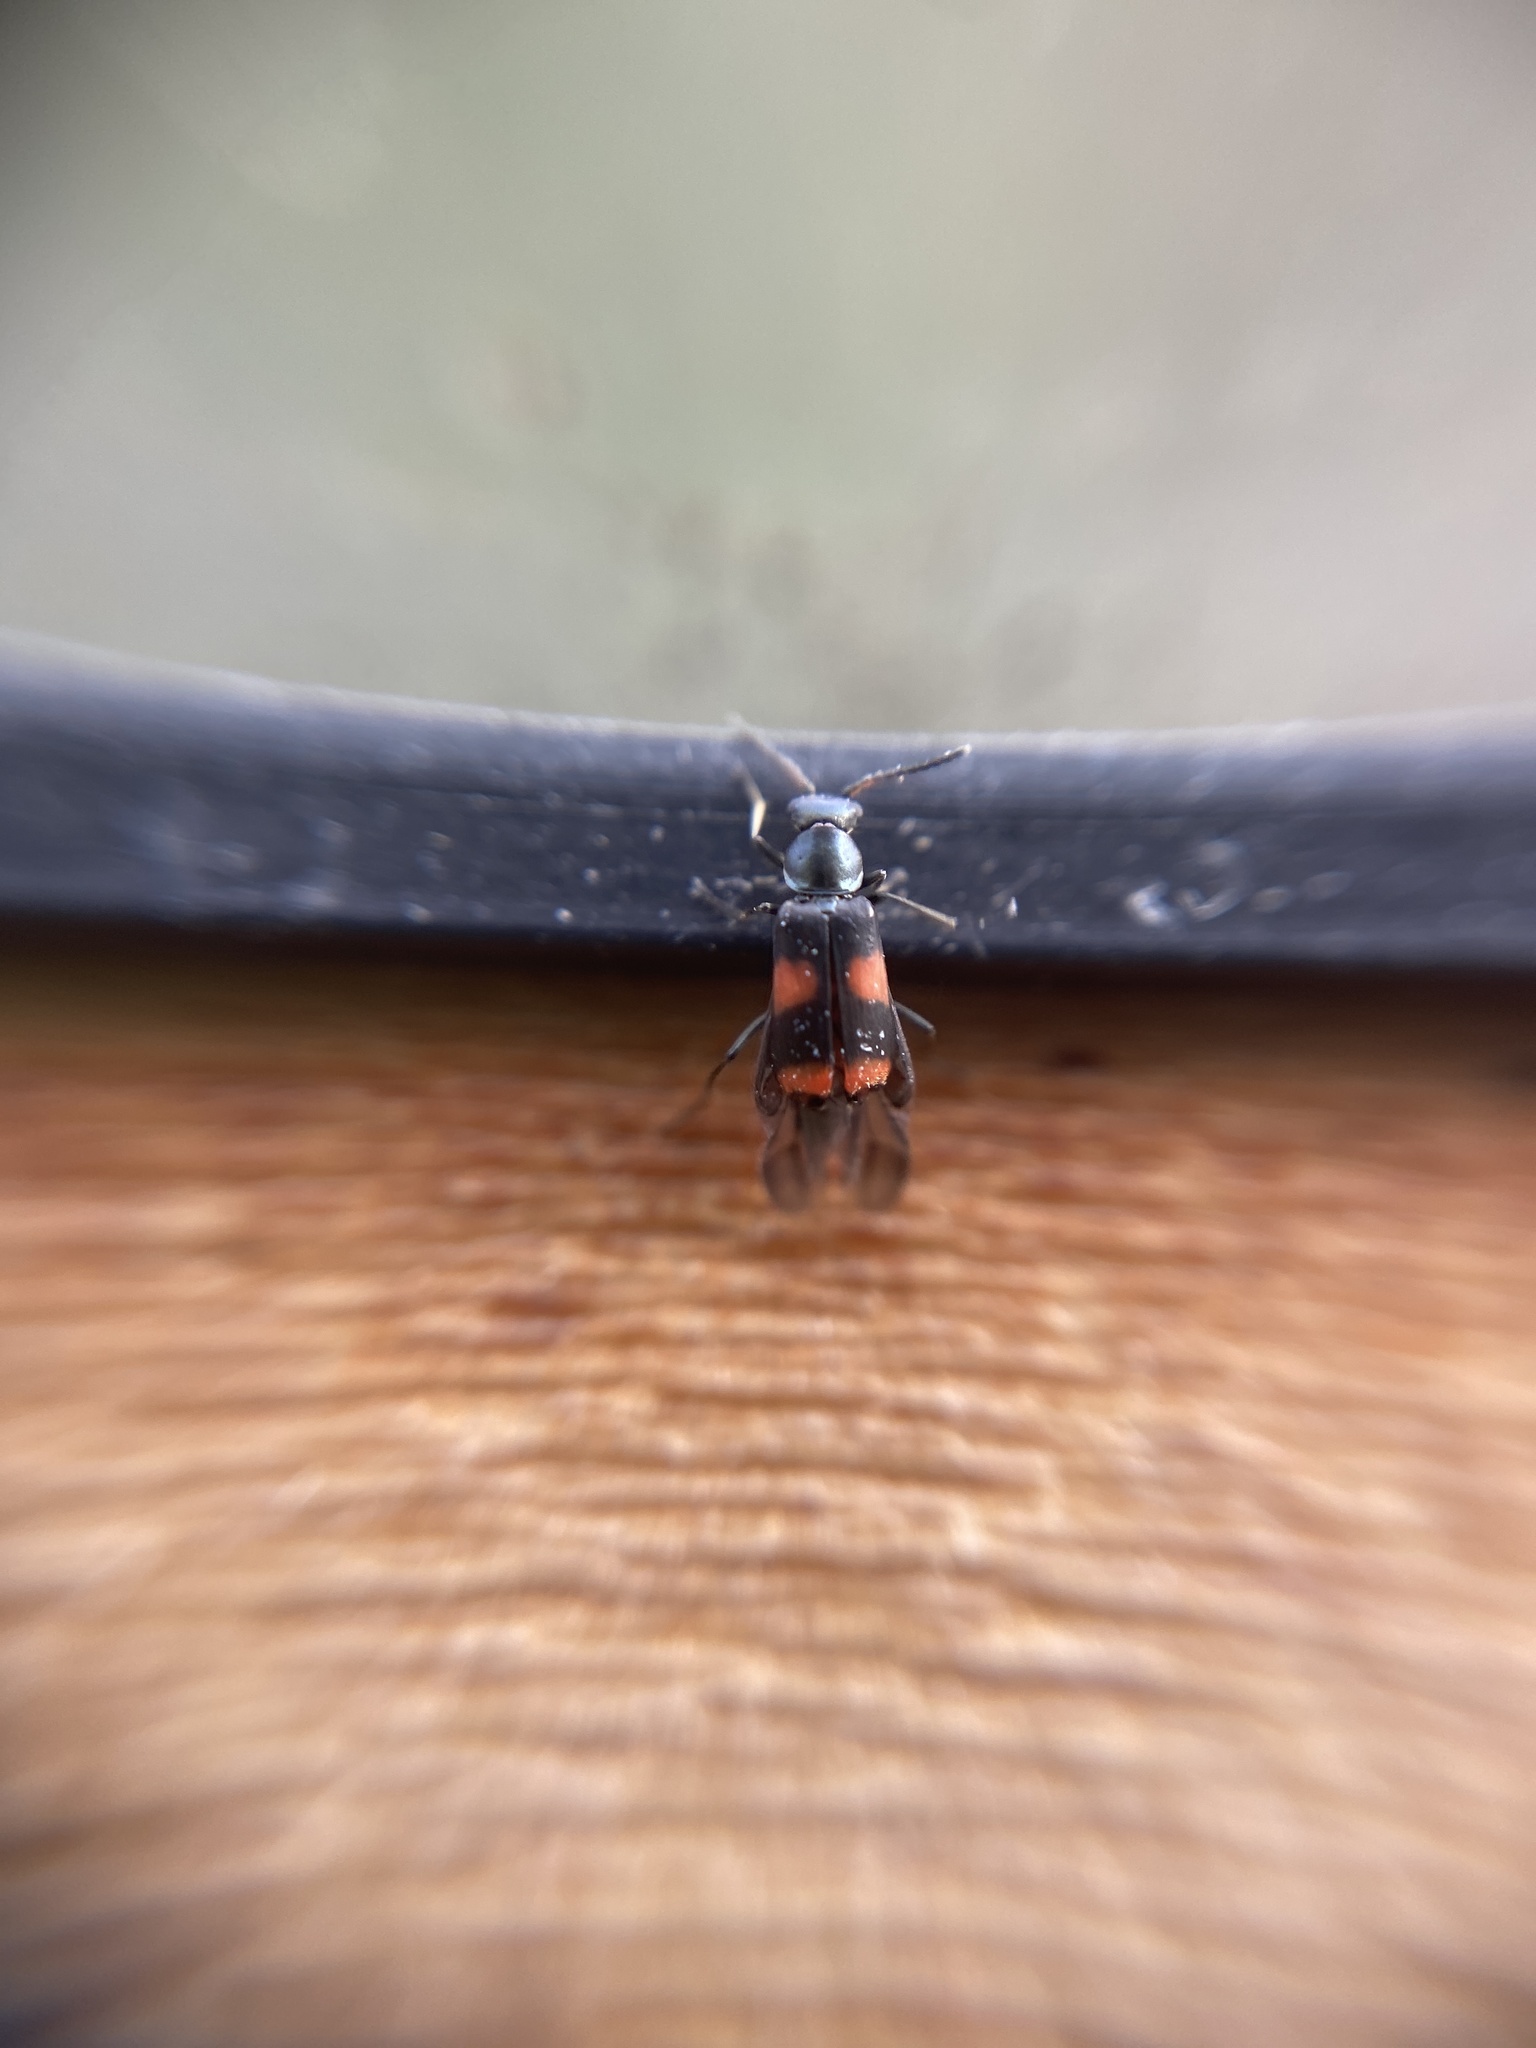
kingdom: Animalia
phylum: Arthropoda
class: Insecta
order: Coleoptera
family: Melyridae
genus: Anthocomus
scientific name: Anthocomus fasciatus
